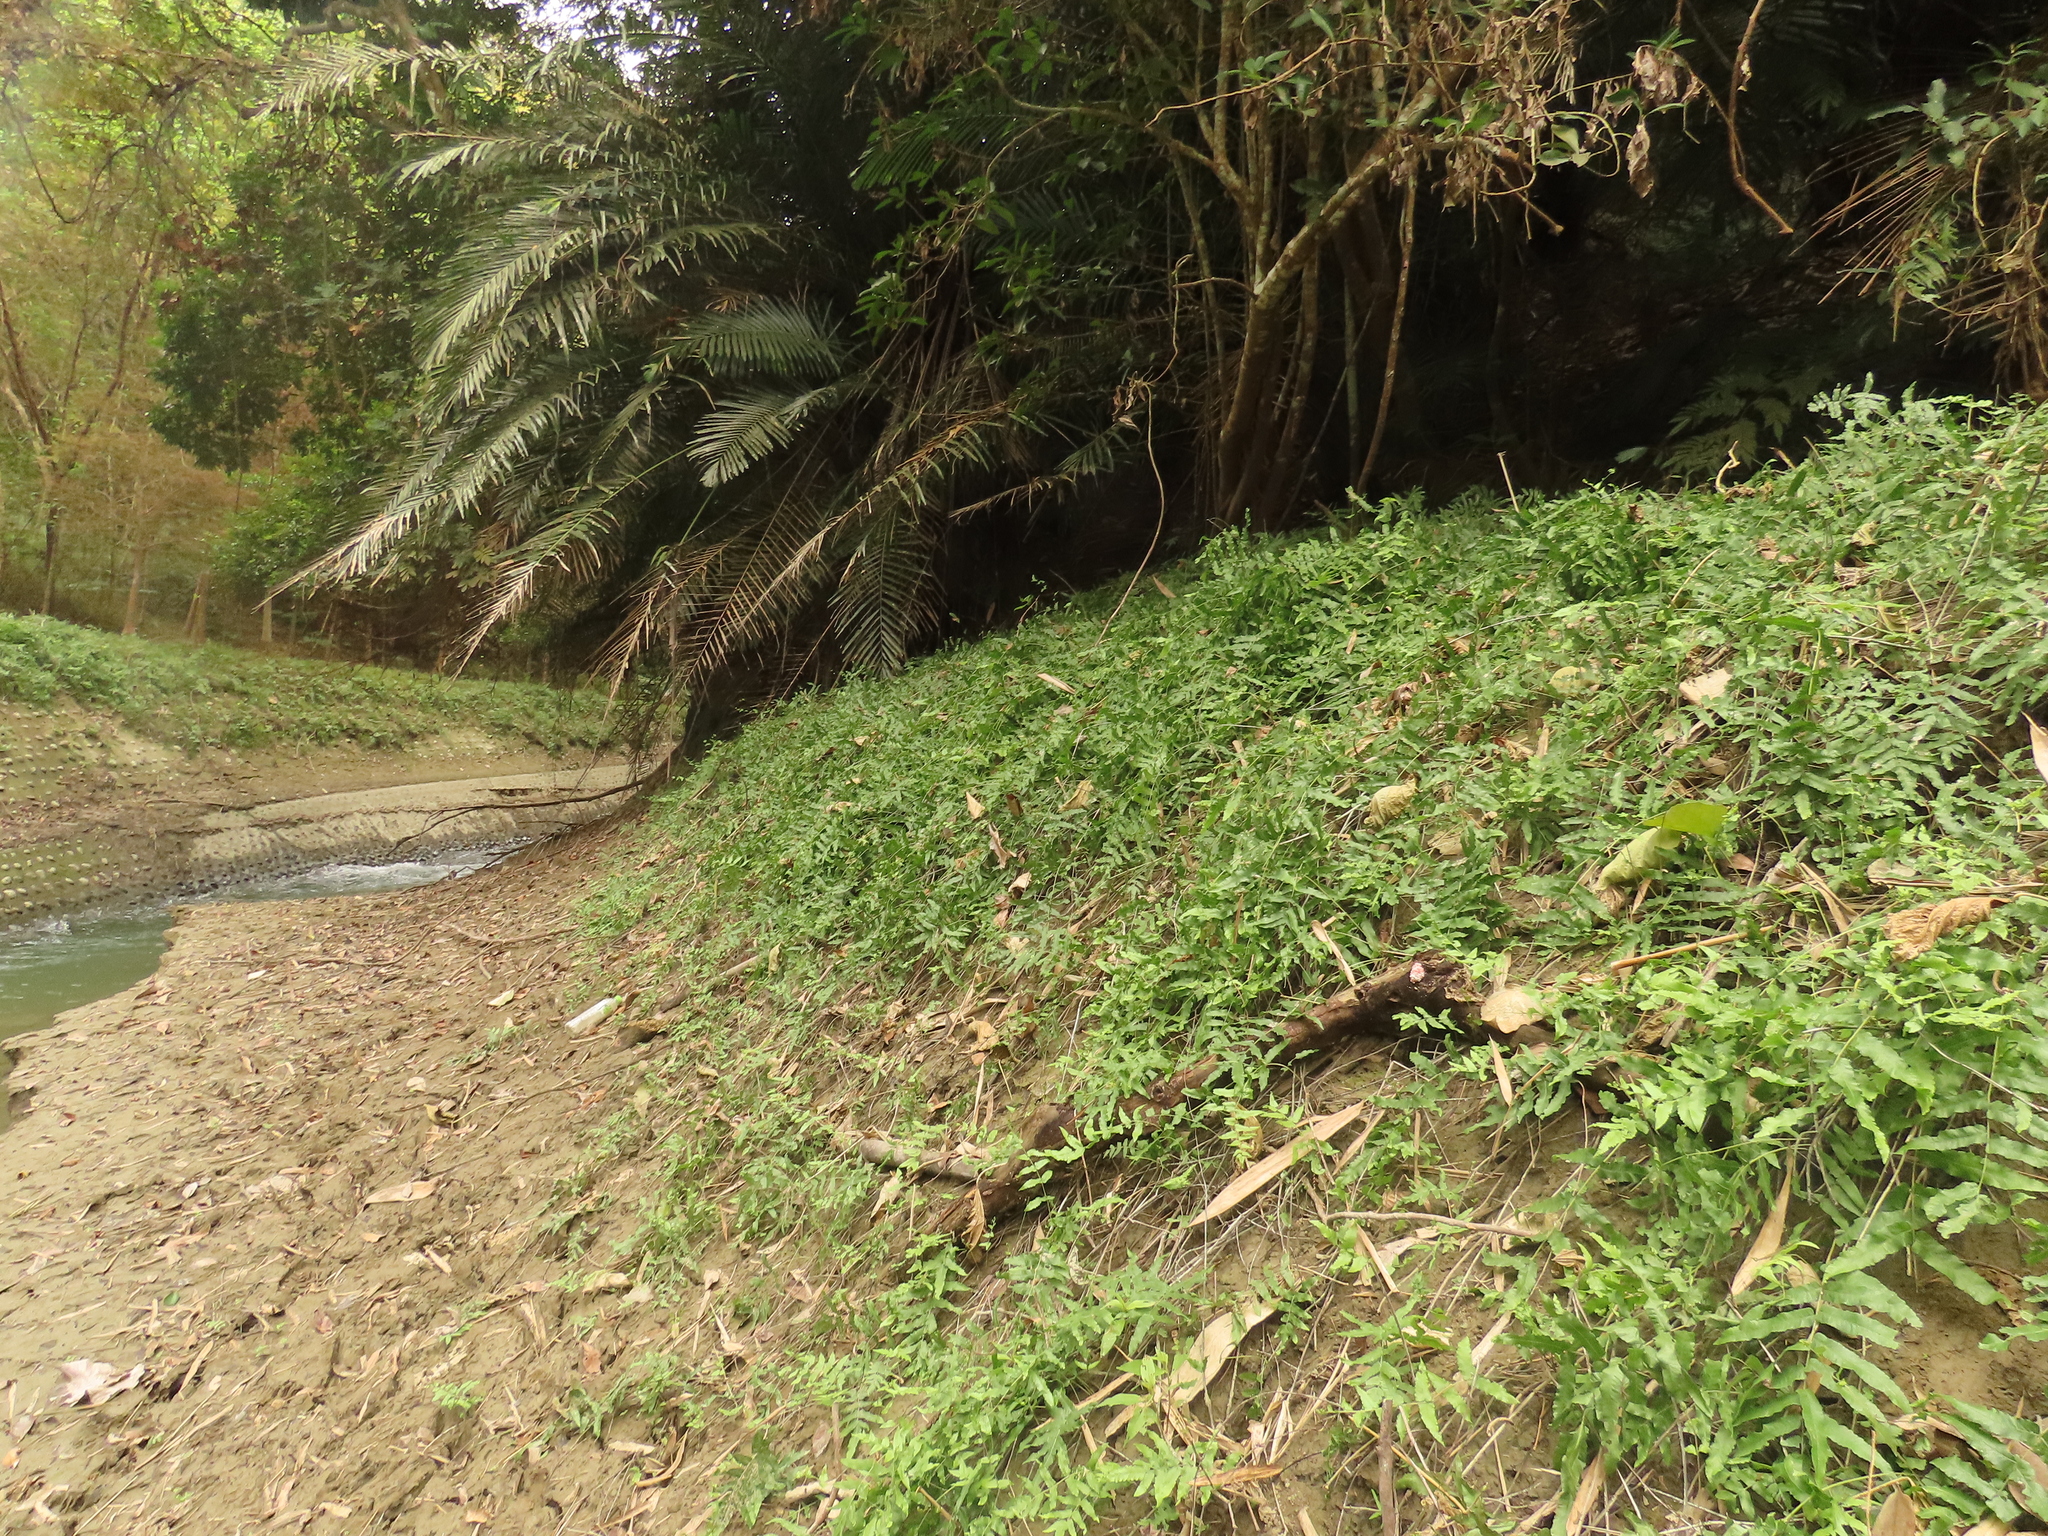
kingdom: Plantae
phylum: Tracheophyta
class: Polypodiopsida
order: Polypodiales
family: Thelypteridaceae
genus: Ampelopteris
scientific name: Ampelopteris prolifera
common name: Riverine scrambler
